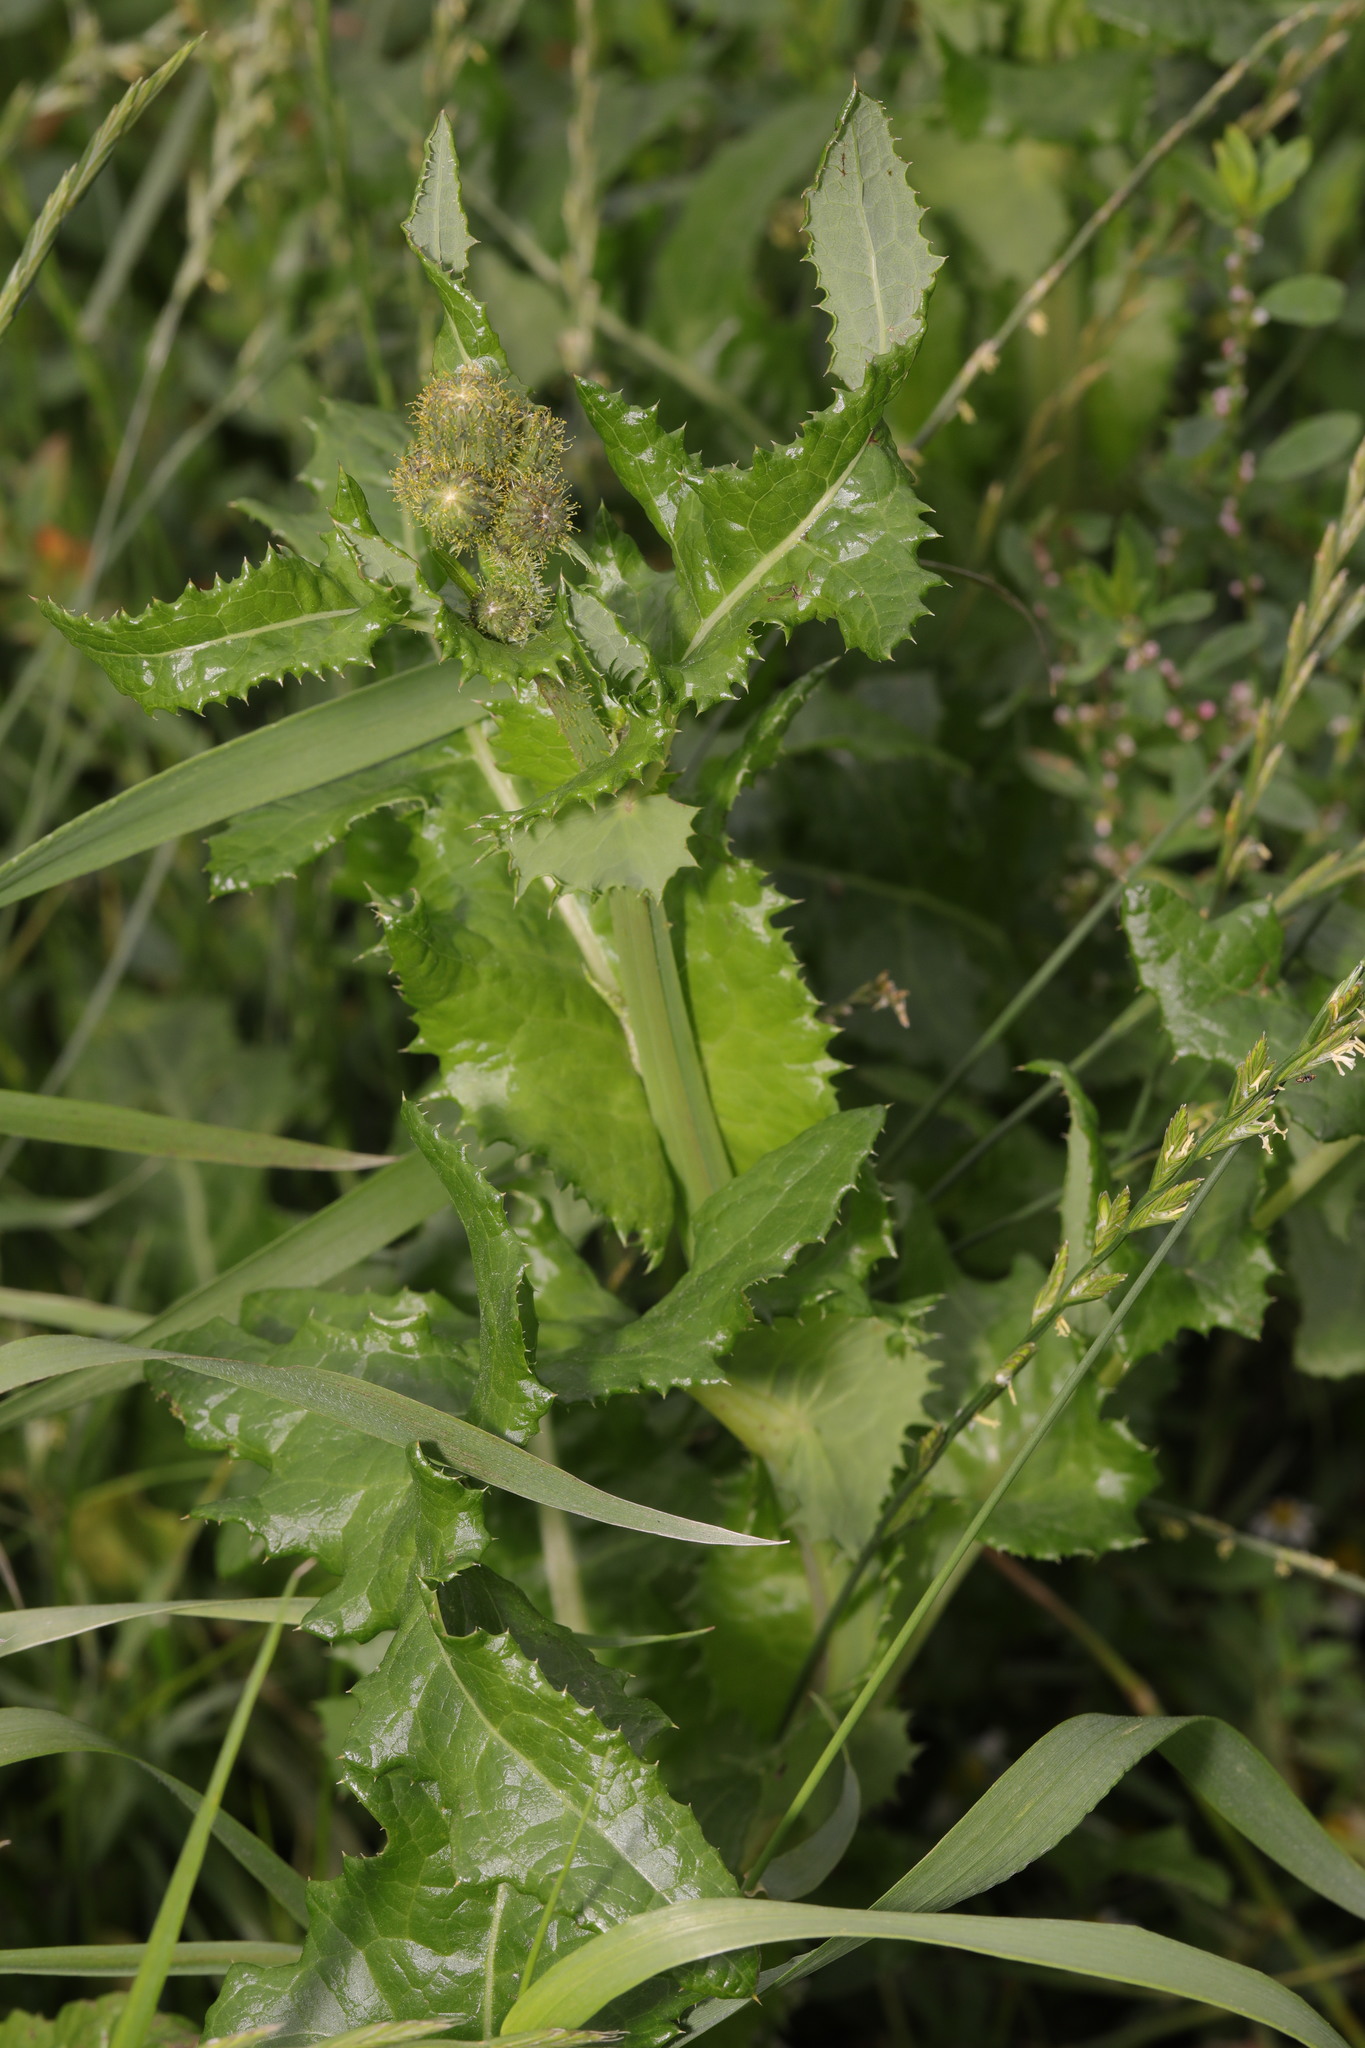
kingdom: Plantae
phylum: Tracheophyta
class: Magnoliopsida
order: Asterales
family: Asteraceae
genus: Sonchus
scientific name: Sonchus asper
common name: Prickly sow-thistle
